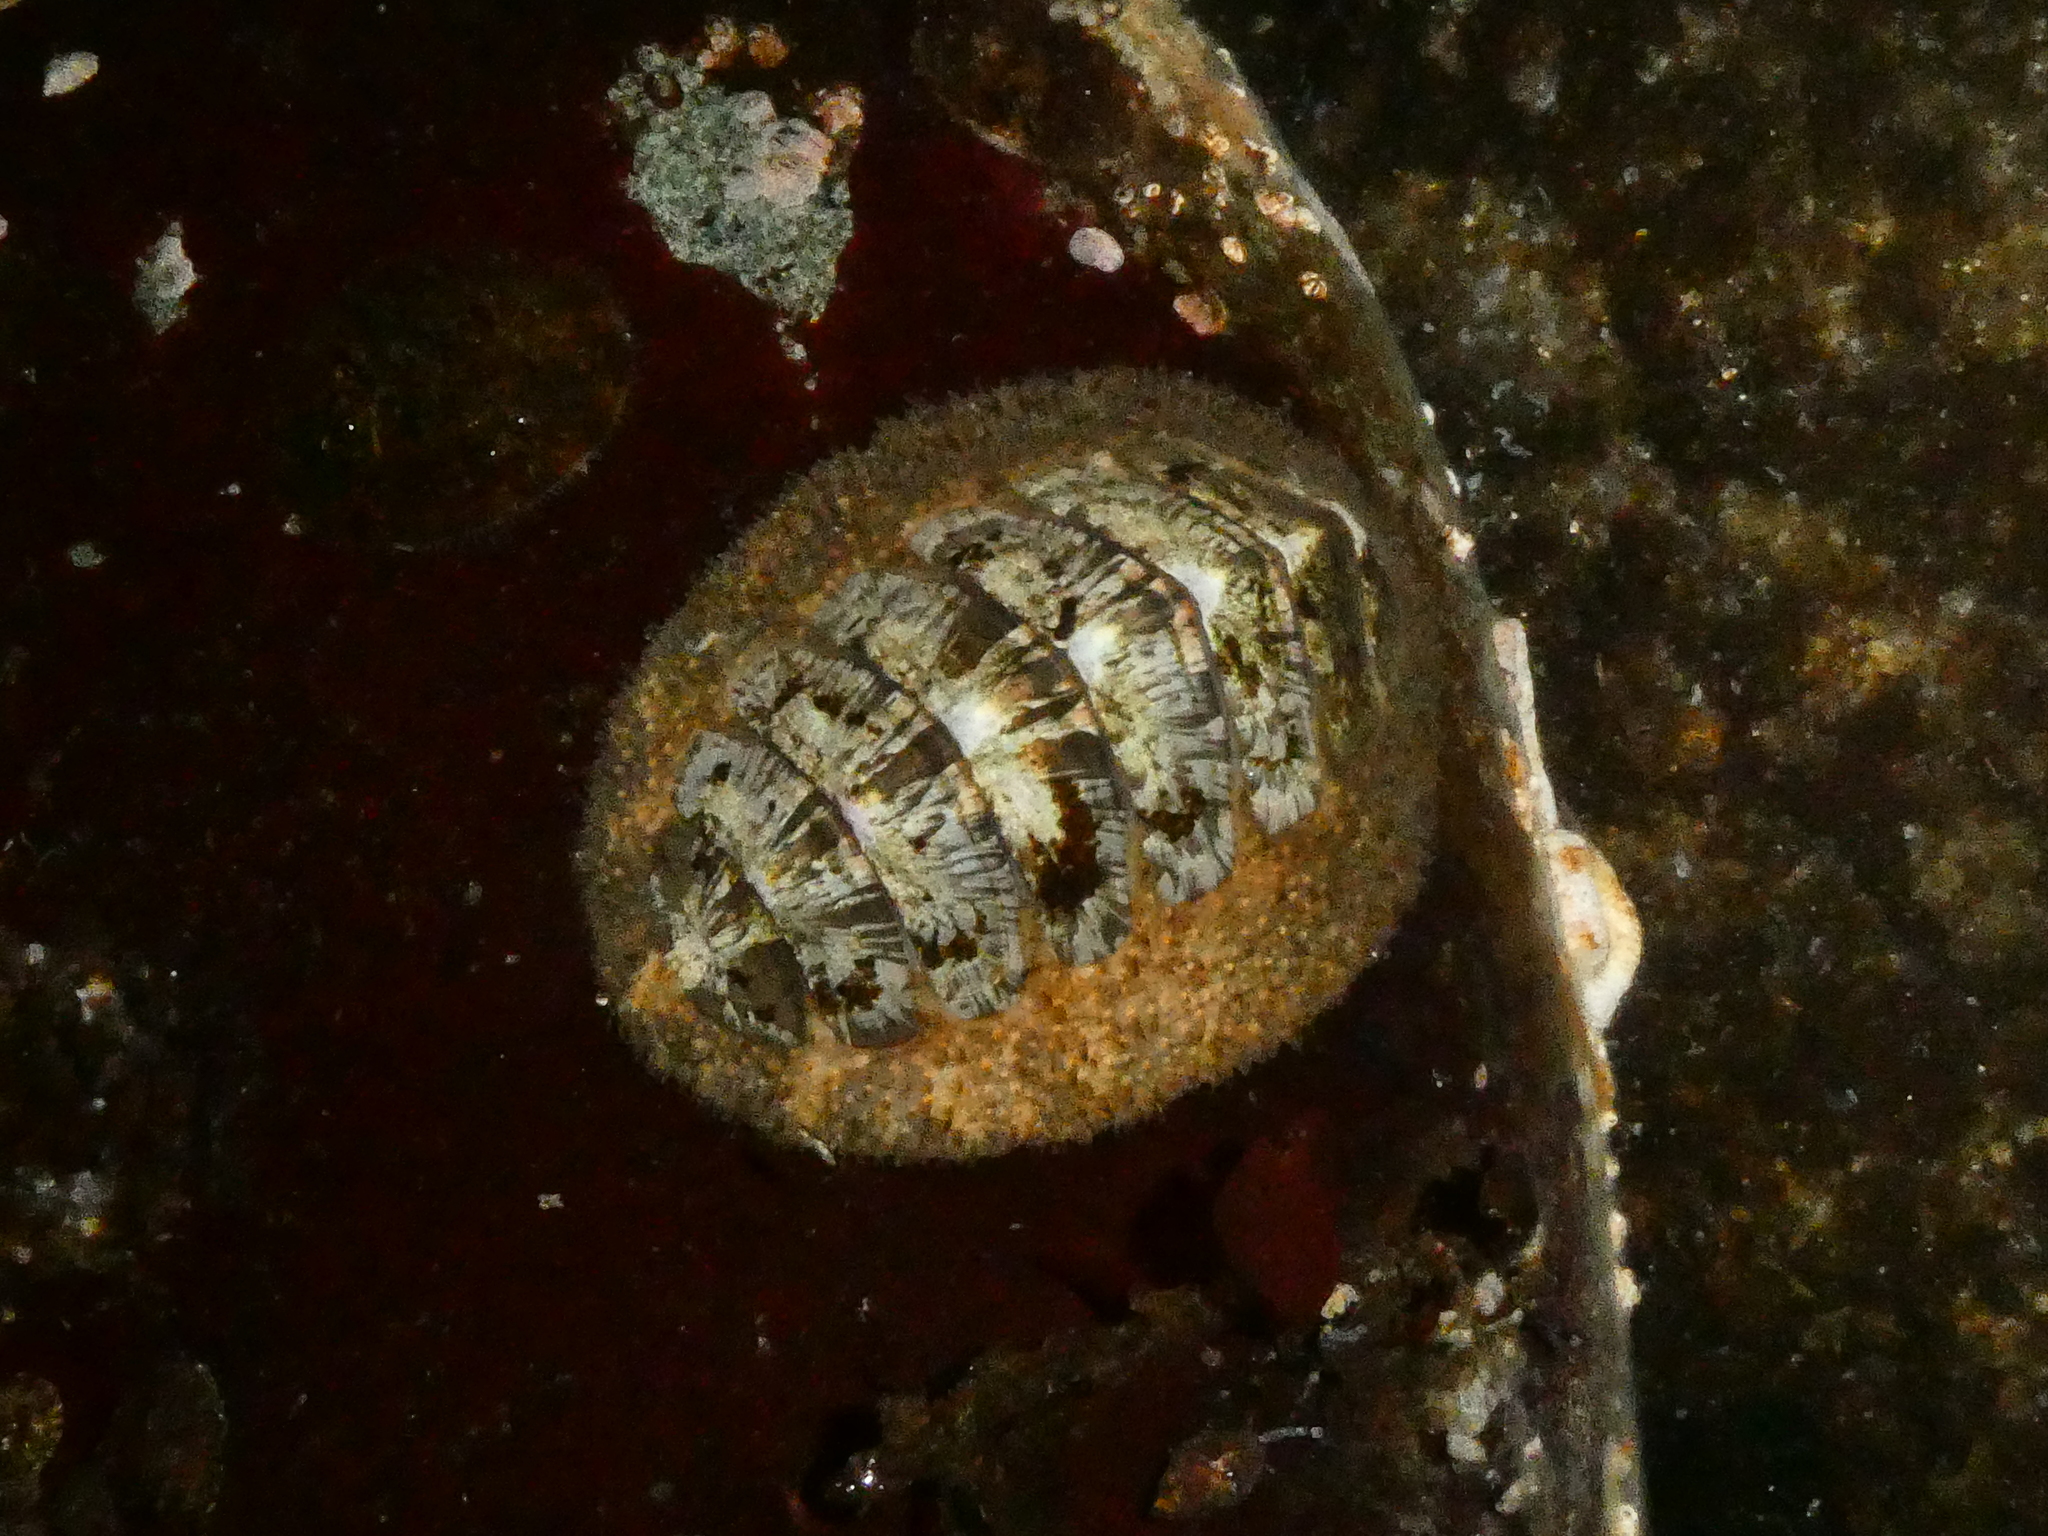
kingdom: Animalia
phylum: Mollusca
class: Polyplacophora
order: Chitonida
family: Mopaliidae
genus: Mopalia
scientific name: Mopalia lignosa
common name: Woody chiton
